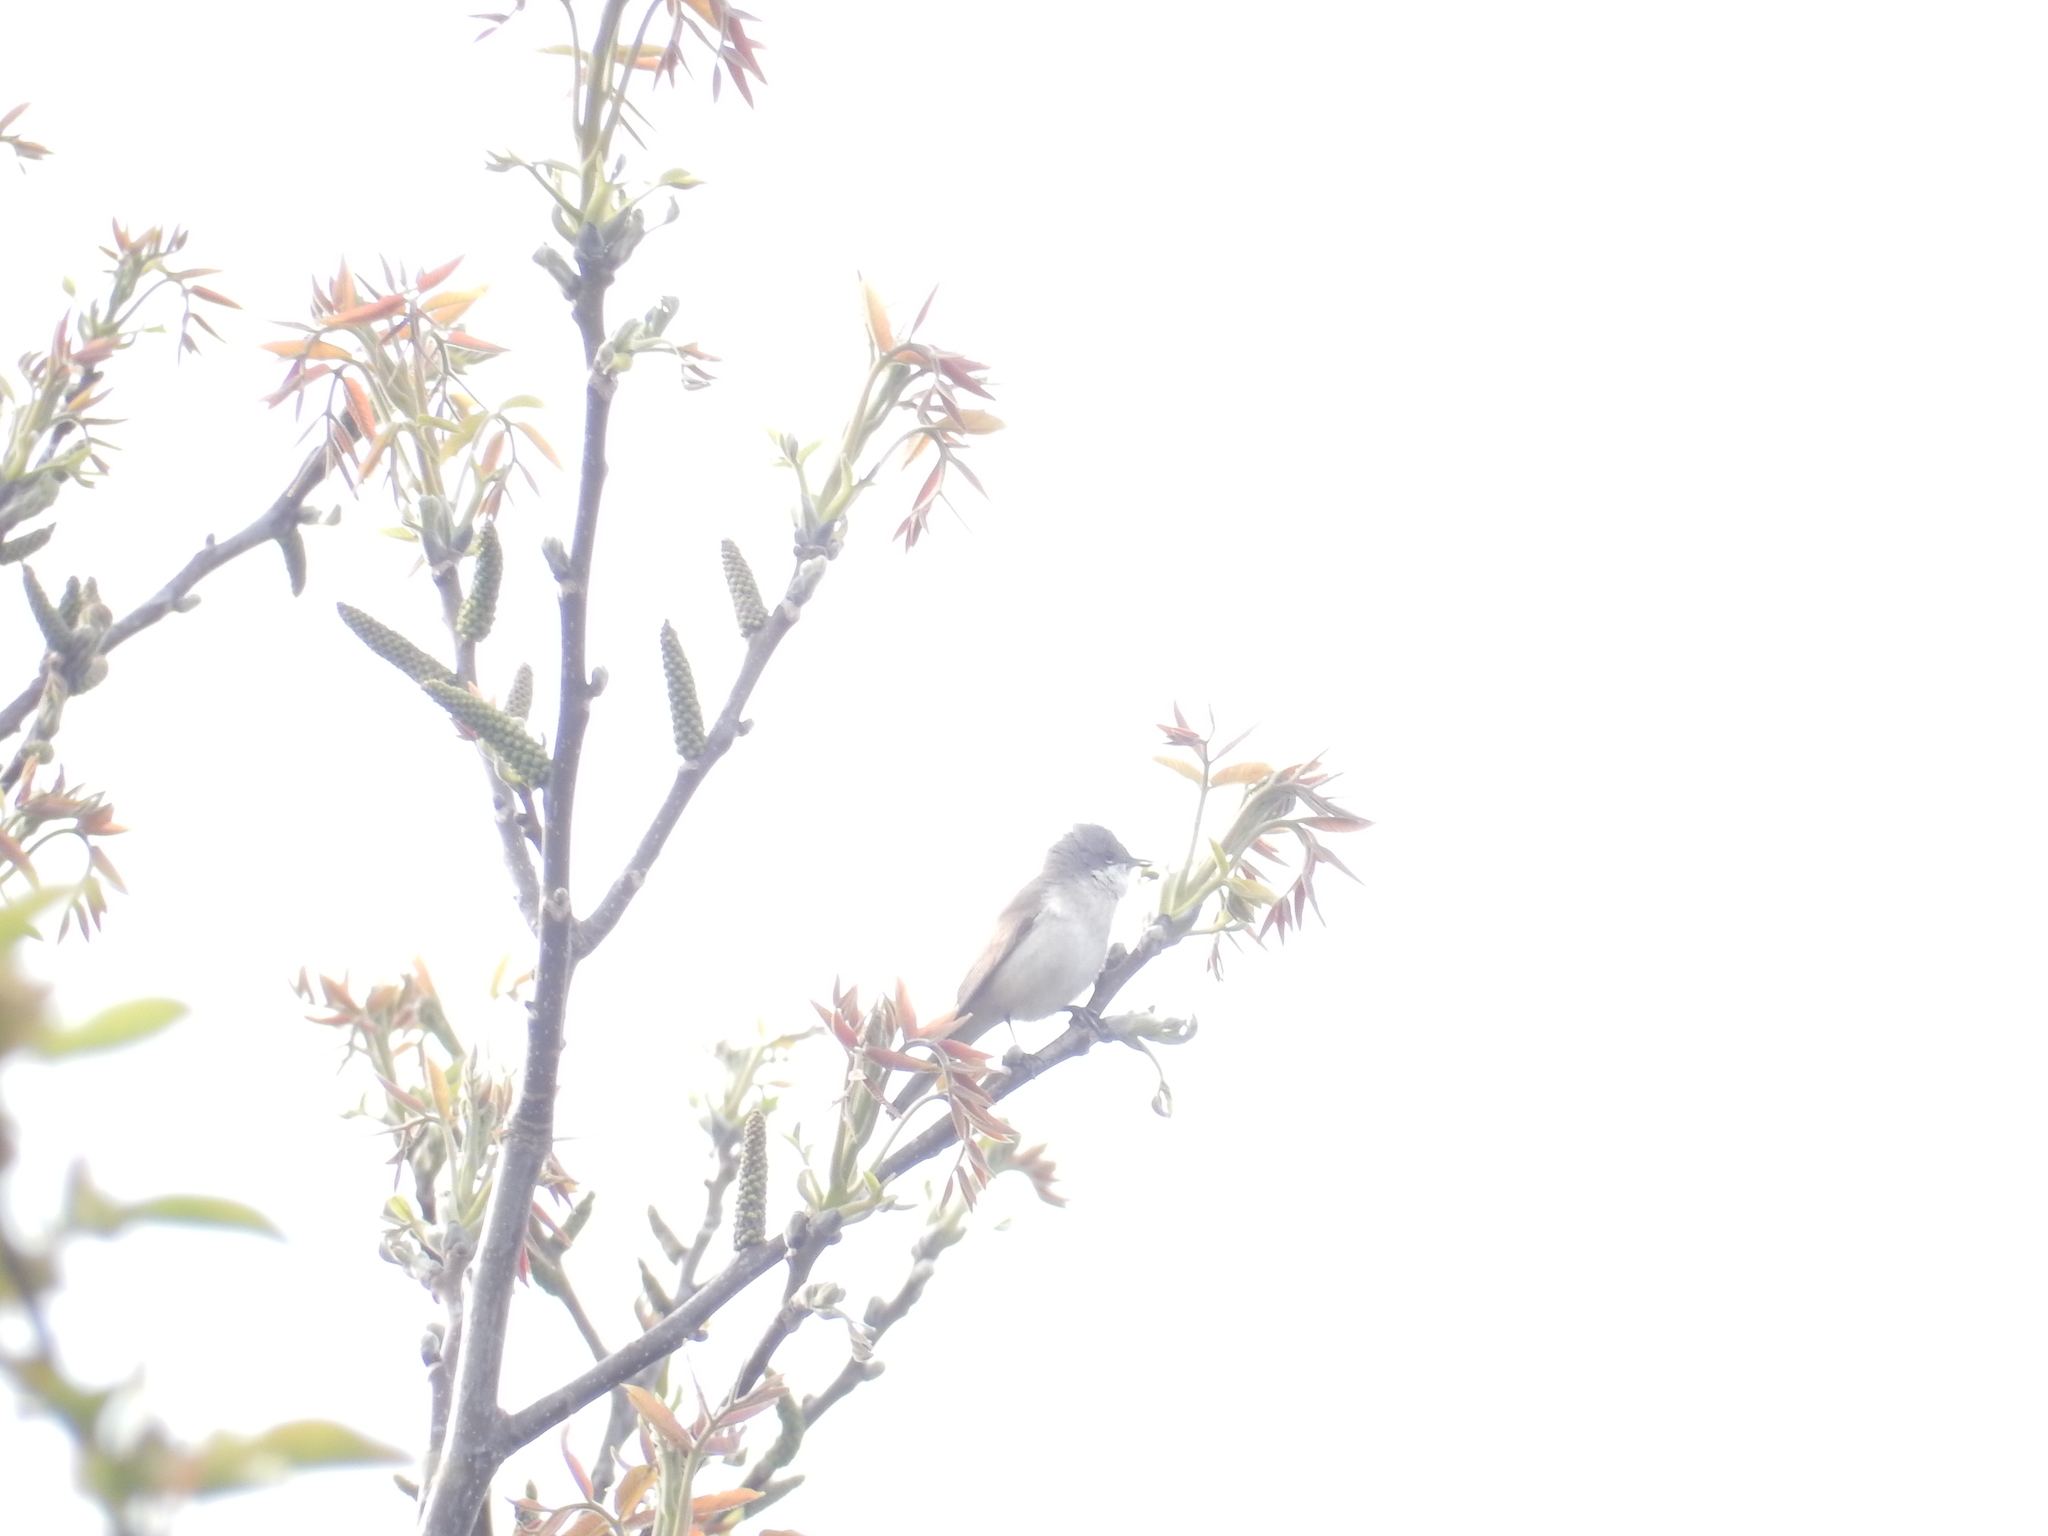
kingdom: Animalia
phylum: Chordata
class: Aves
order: Passeriformes
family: Sylviidae
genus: Sylvia
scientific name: Sylvia curruca
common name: Lesser whitethroat
